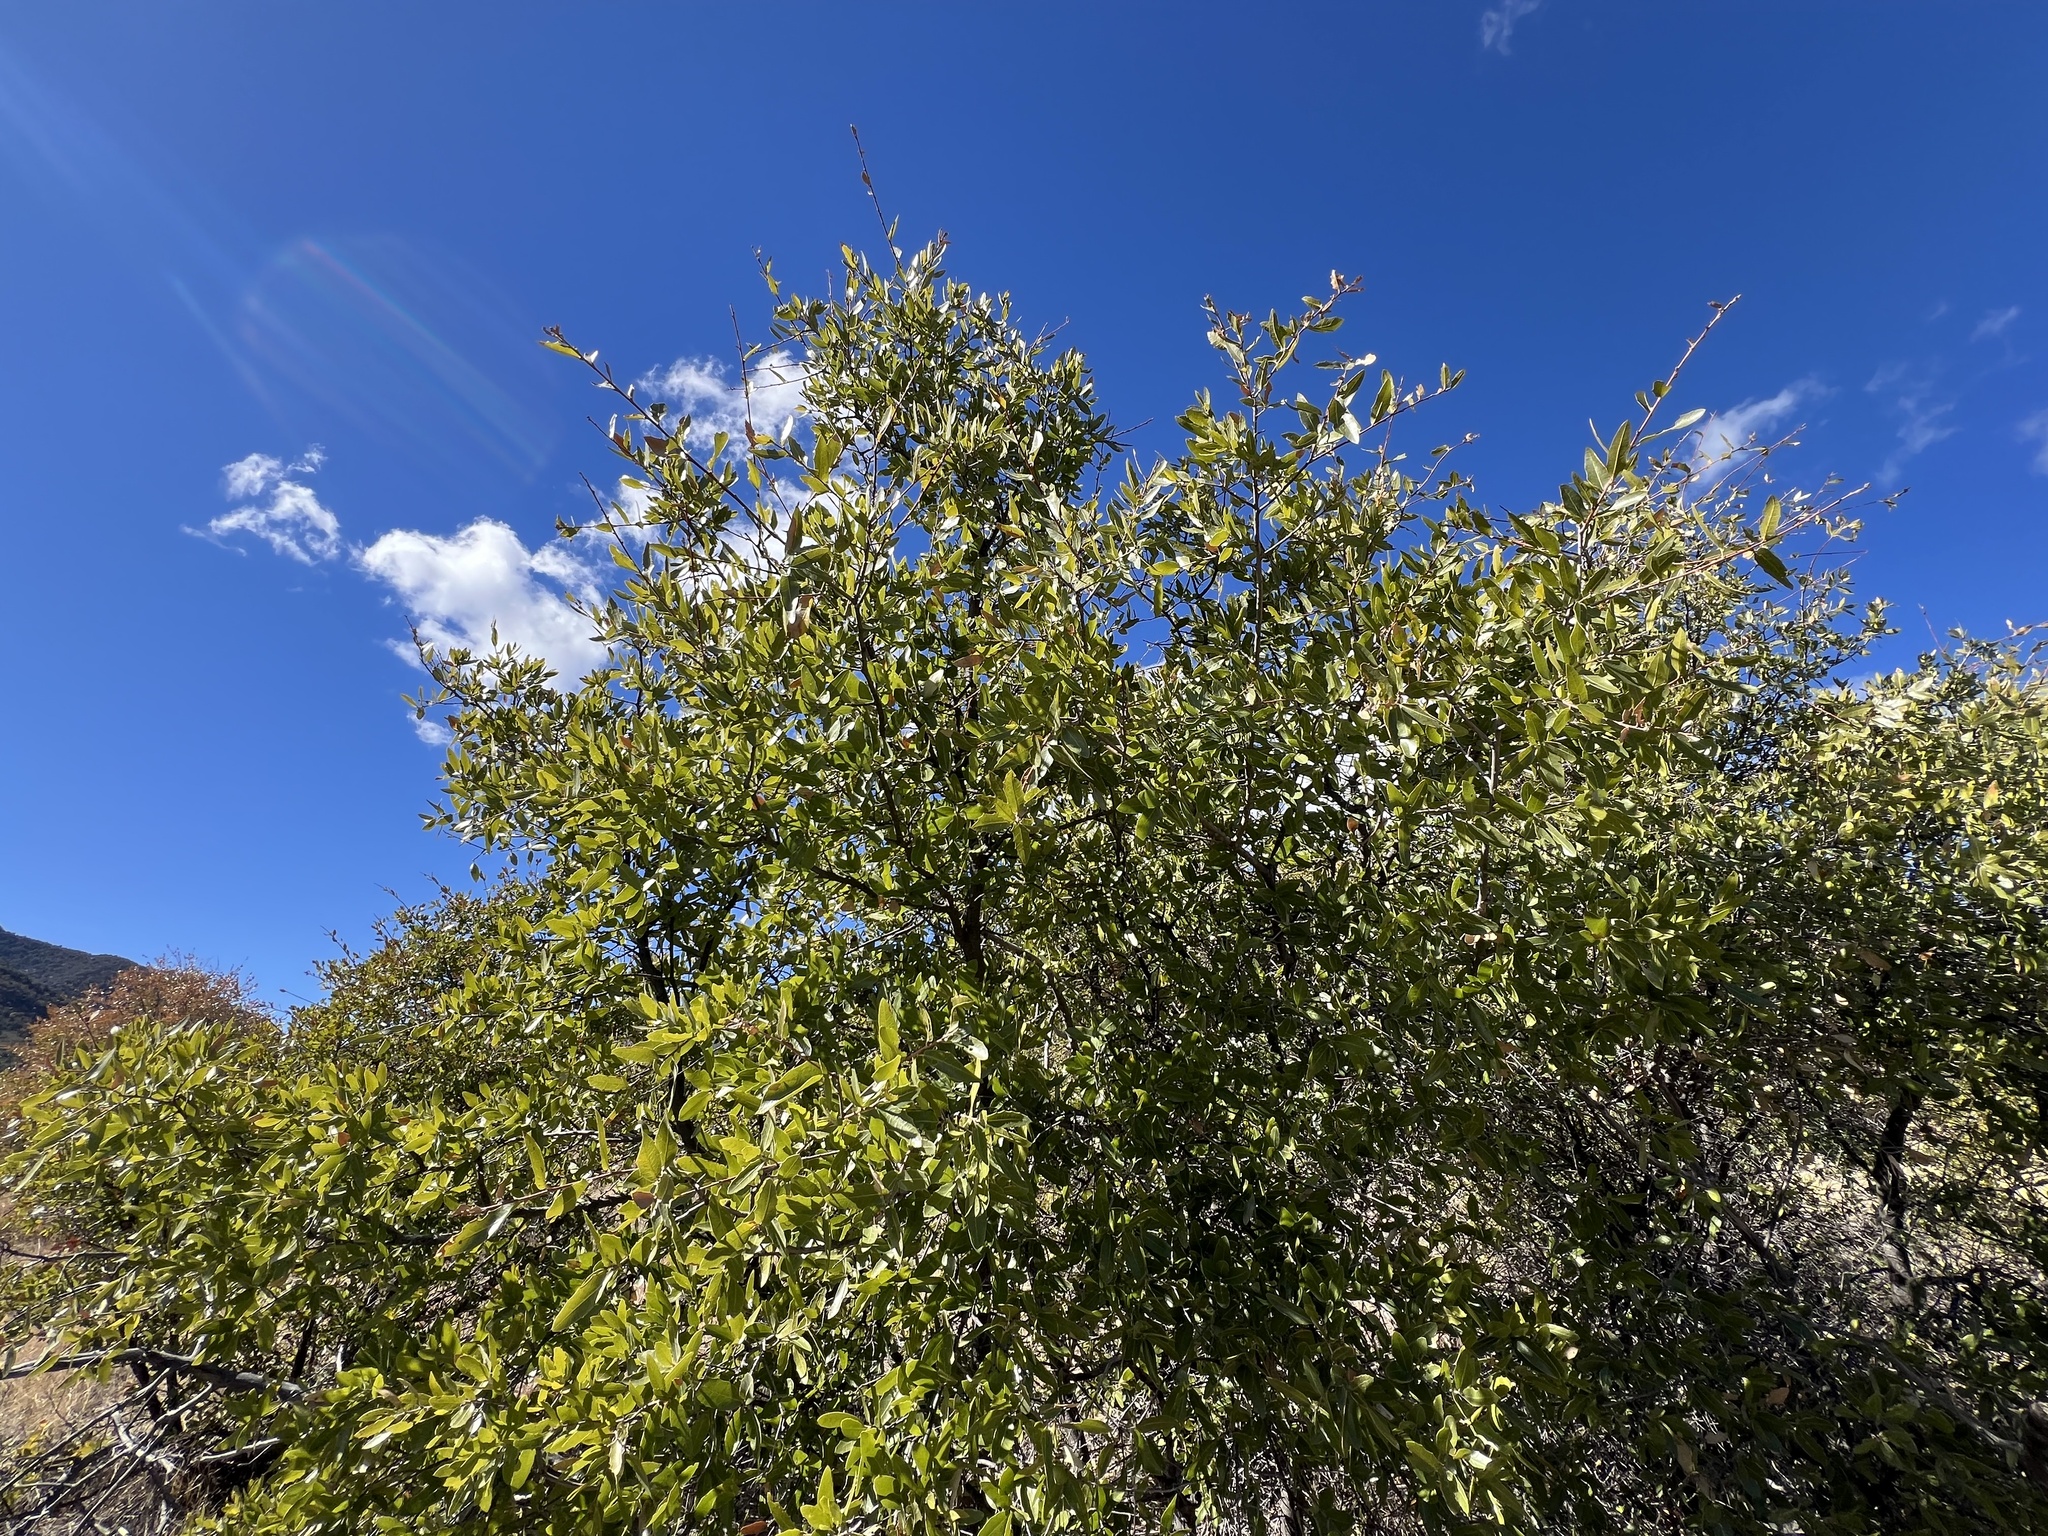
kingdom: Plantae
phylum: Tracheophyta
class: Magnoliopsida
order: Fagales
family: Fagaceae
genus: Quercus
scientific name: Quercus emoryi
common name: Emory oak
